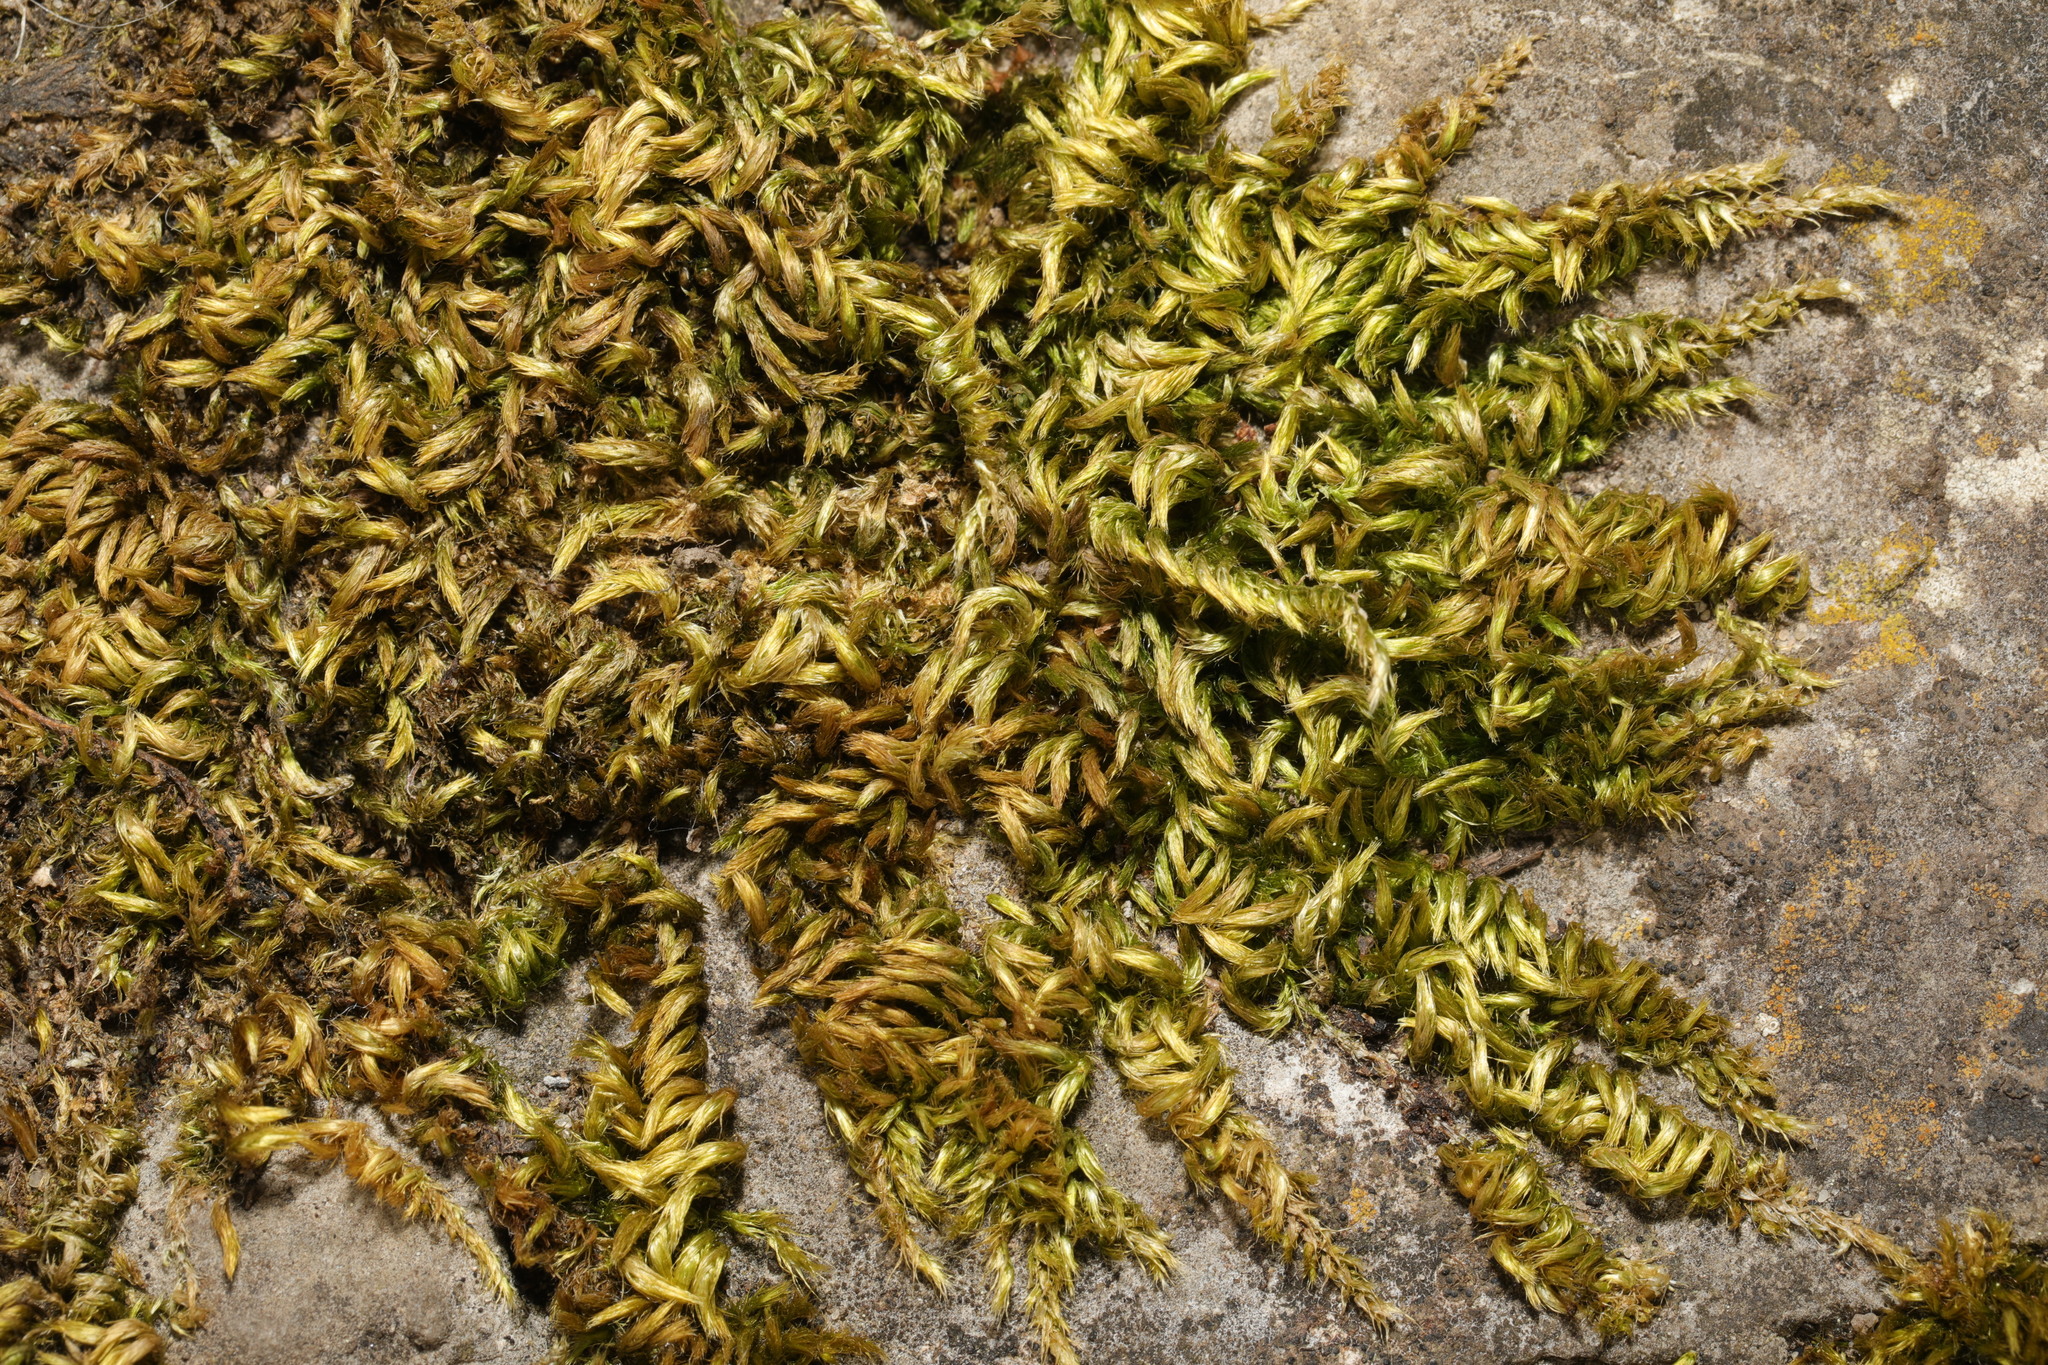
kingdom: Plantae
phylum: Bryophyta
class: Bryopsida
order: Hypnales
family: Brachytheciaceae
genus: Homalothecium
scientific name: Homalothecium sericeum
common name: Silky wall feather-moss
